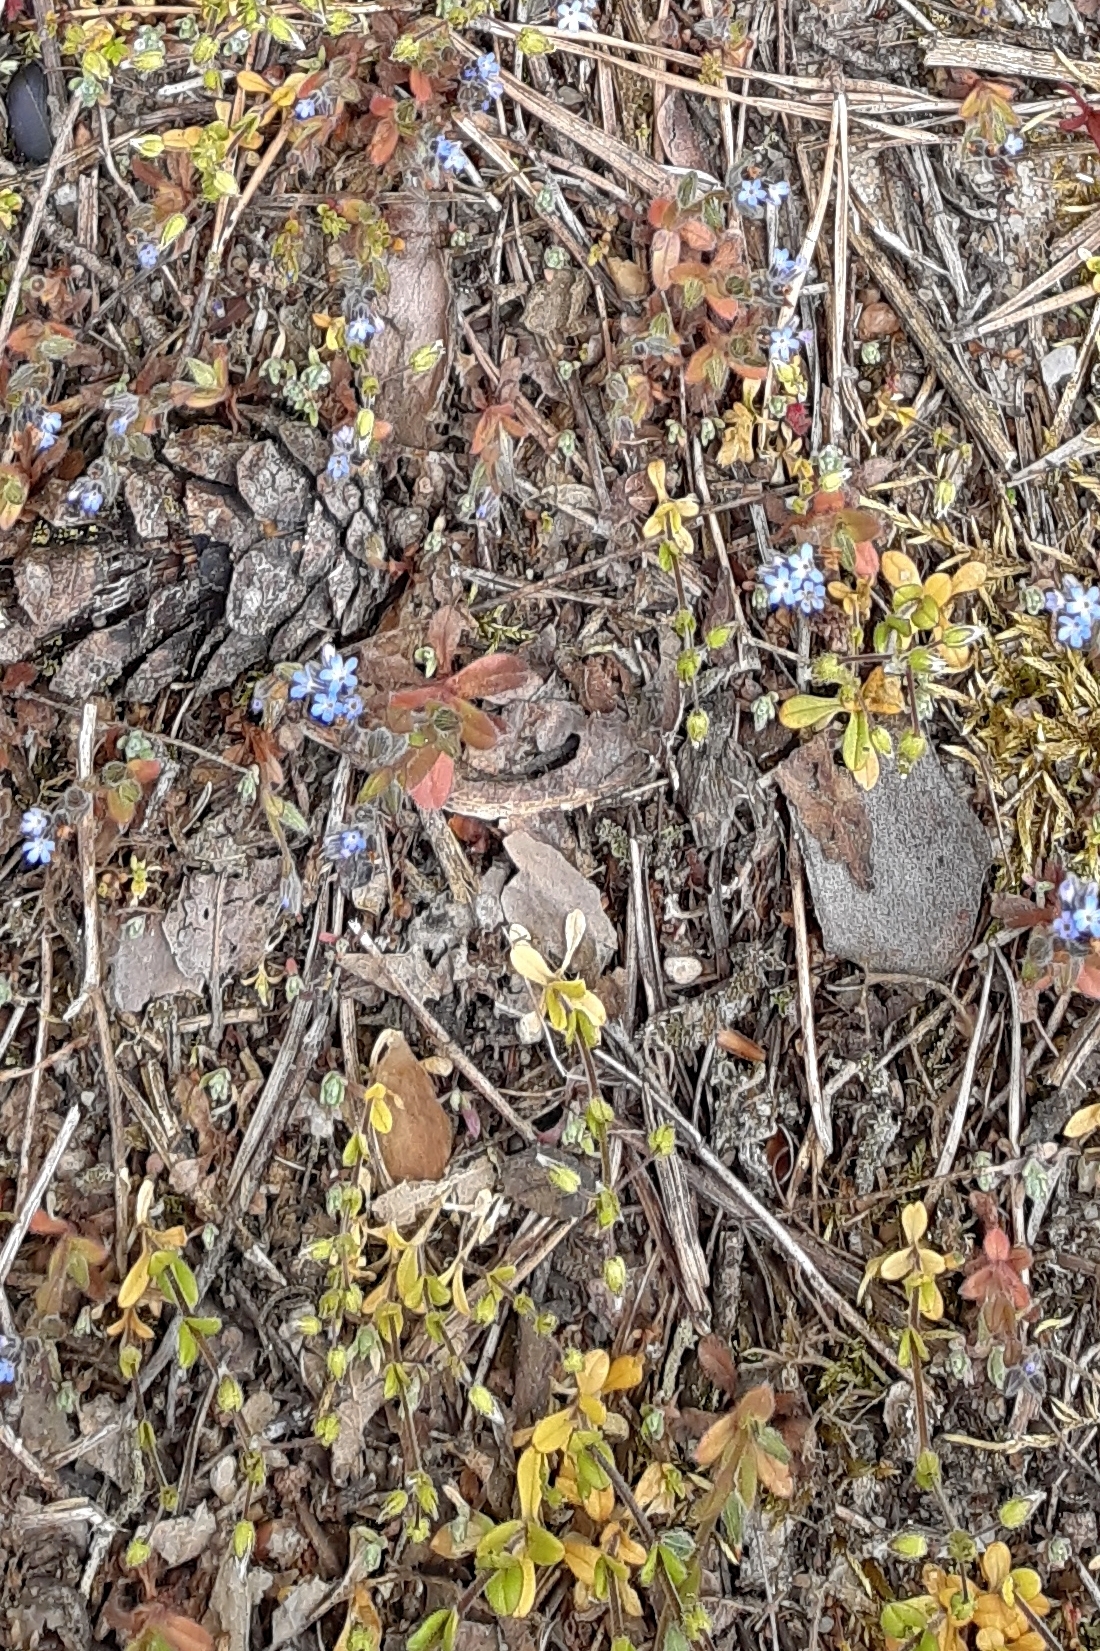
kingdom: Plantae
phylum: Tracheophyta
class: Magnoliopsida
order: Boraginales
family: Boraginaceae
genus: Myosotis
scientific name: Myosotis stricta
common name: Strict forget-me-not
